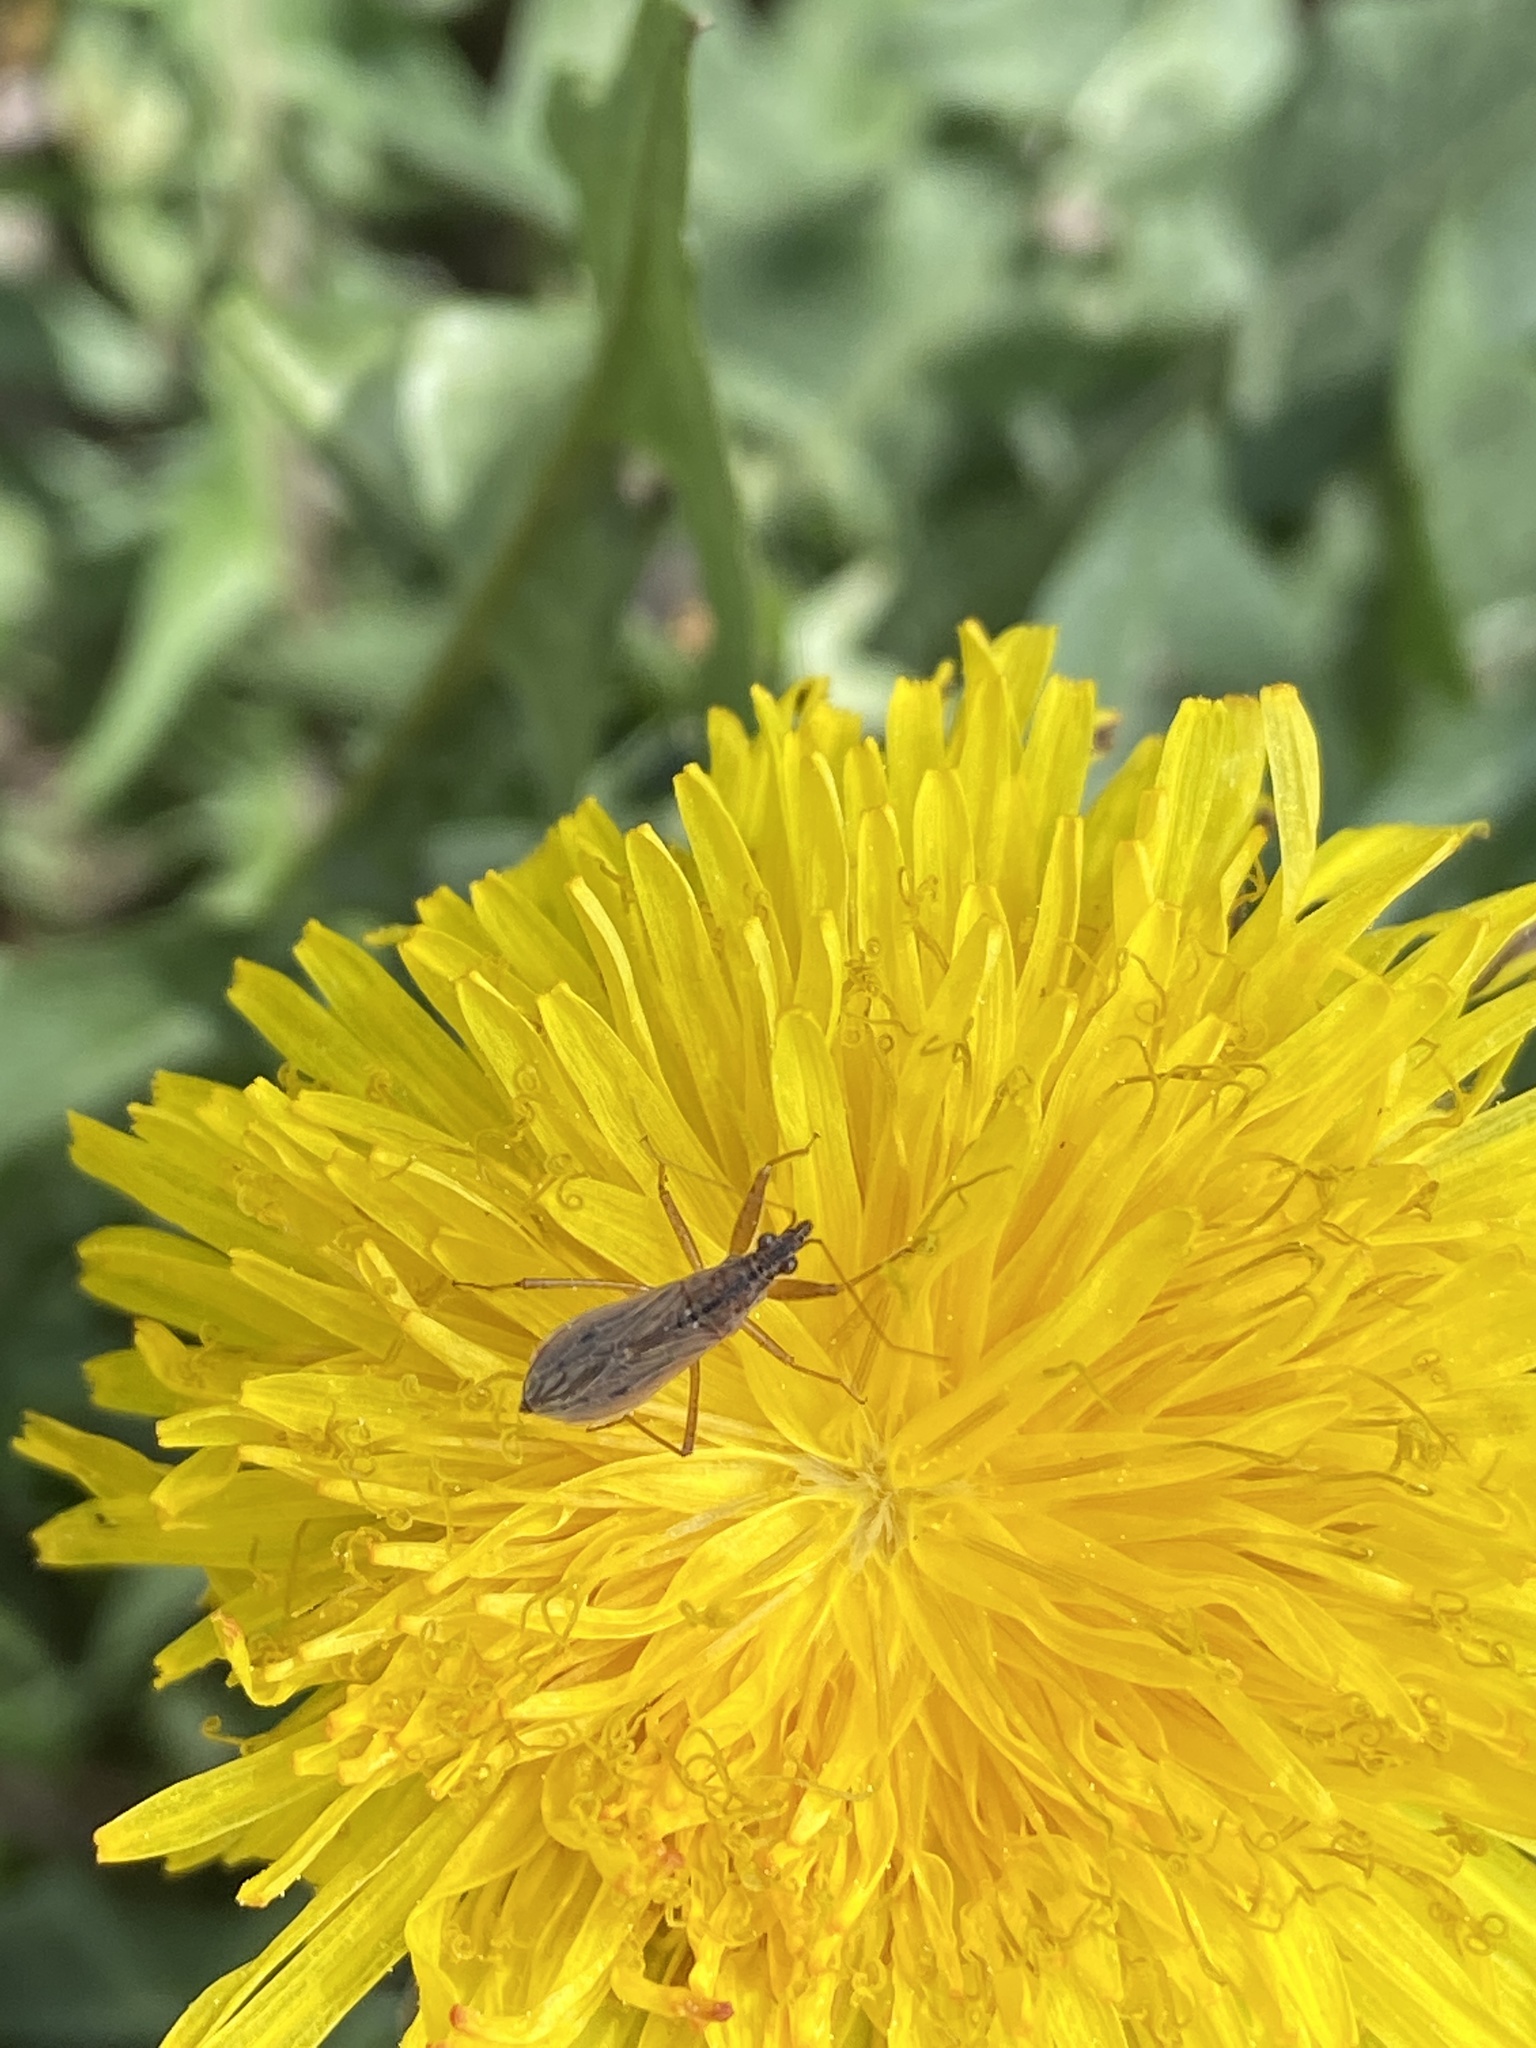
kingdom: Animalia
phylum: Arthropoda
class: Insecta
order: Hemiptera
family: Nabidae
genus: Nabis
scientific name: Nabis
